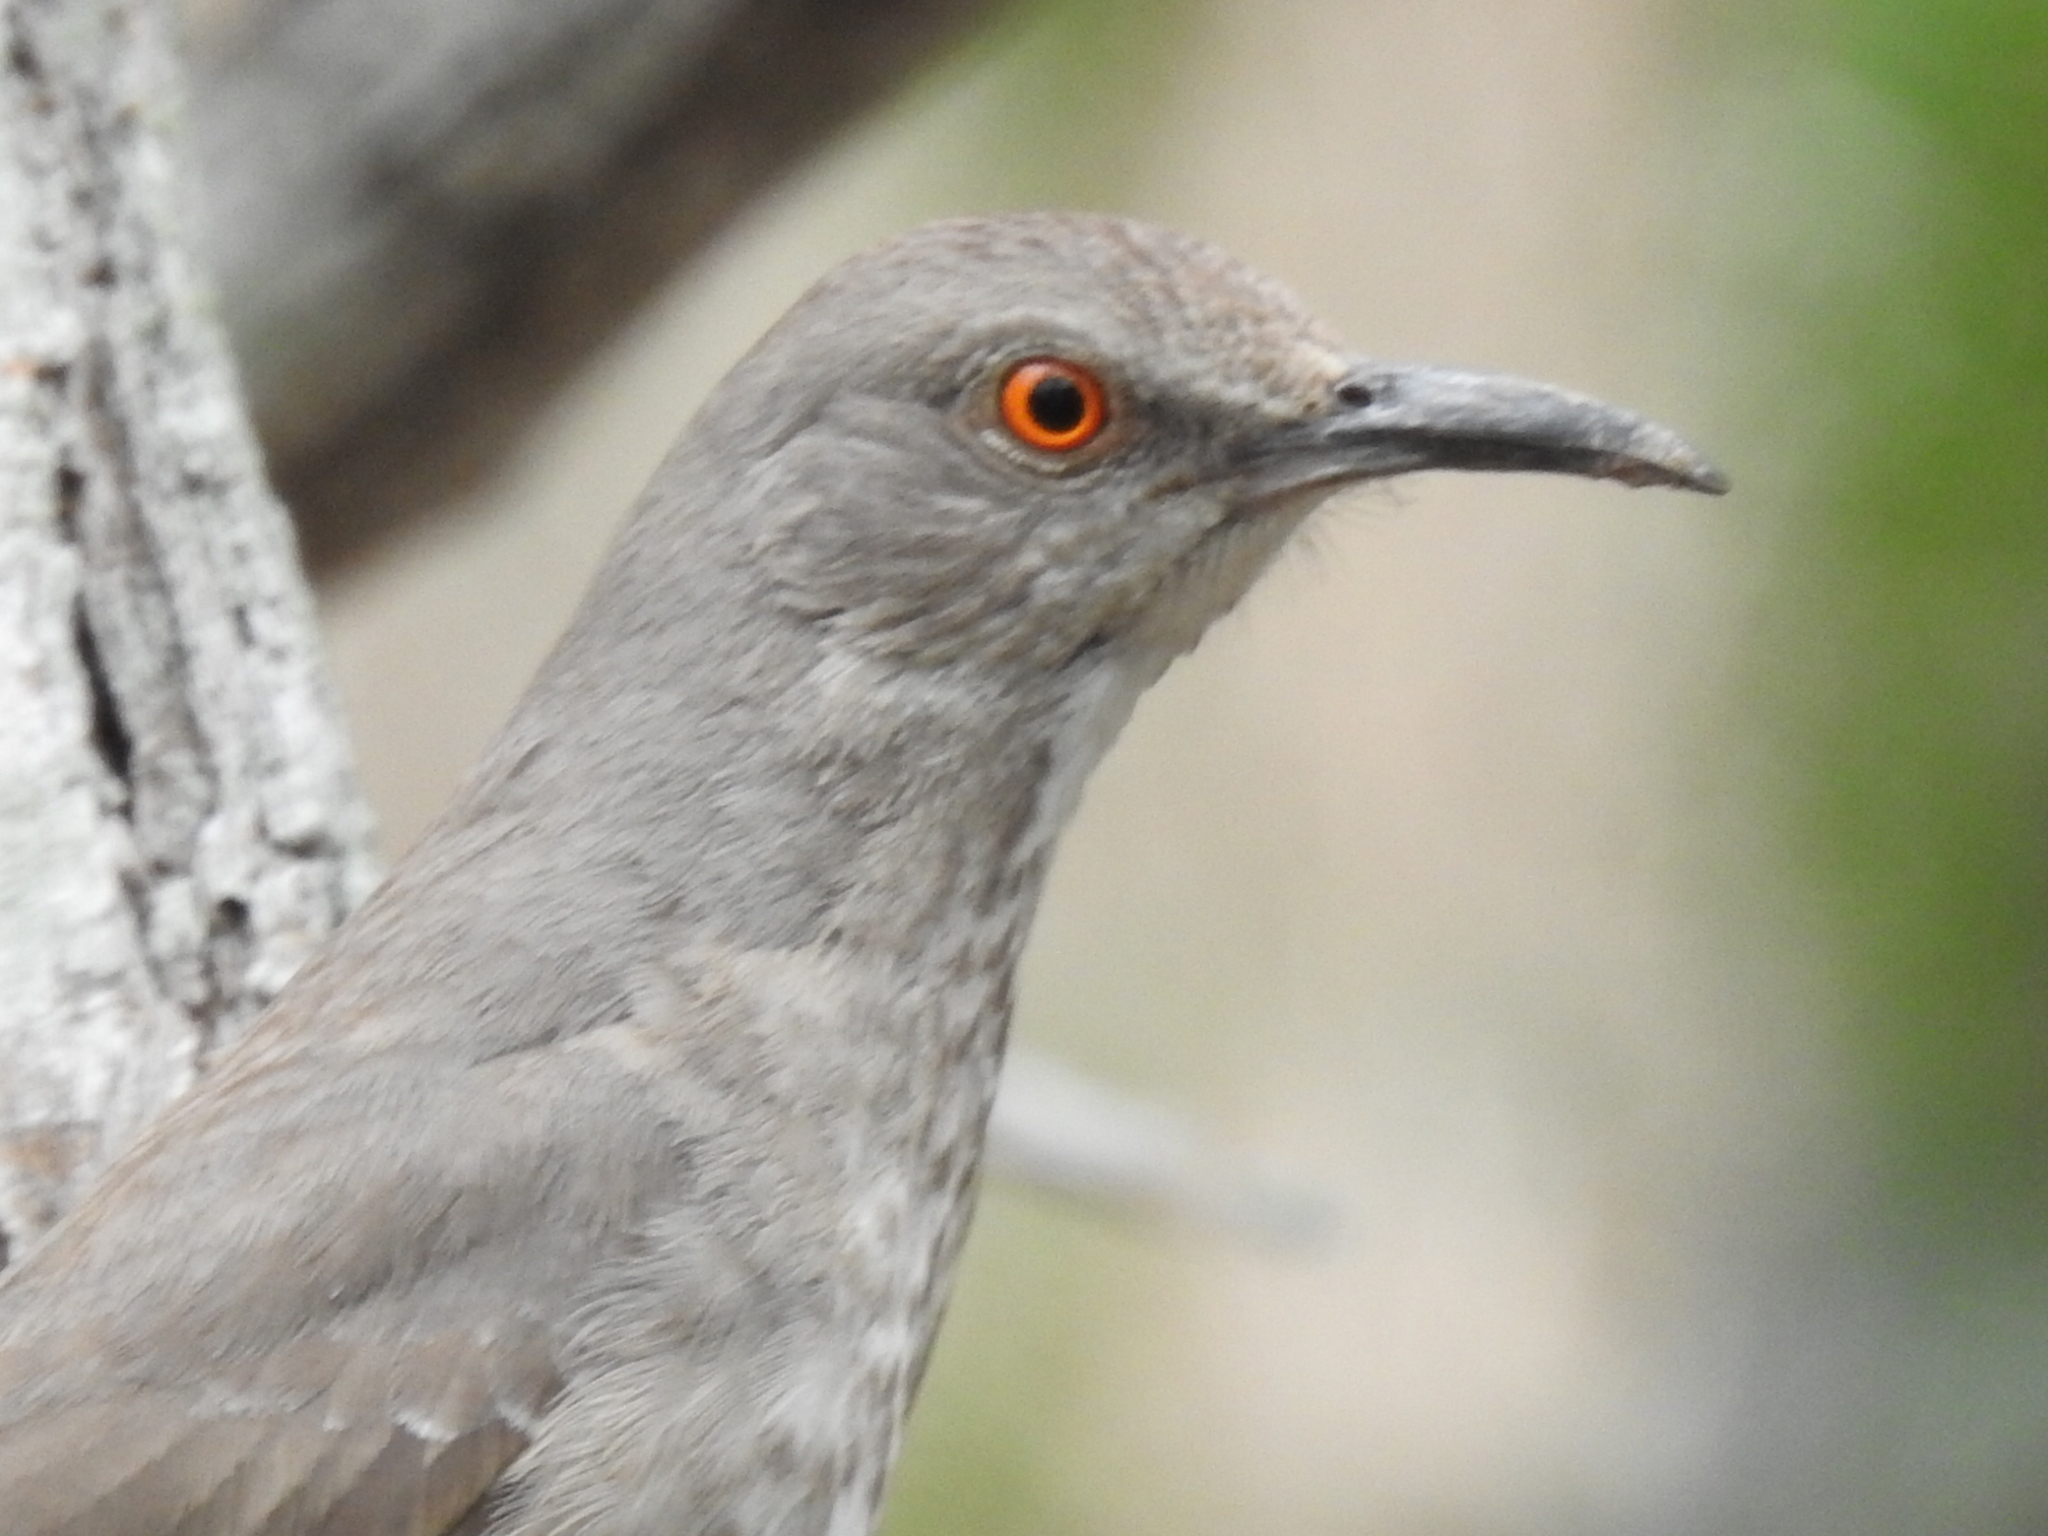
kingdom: Animalia
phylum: Chordata
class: Aves
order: Passeriformes
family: Mimidae
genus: Toxostoma
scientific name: Toxostoma curvirostre
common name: Curve-billed thrasher
